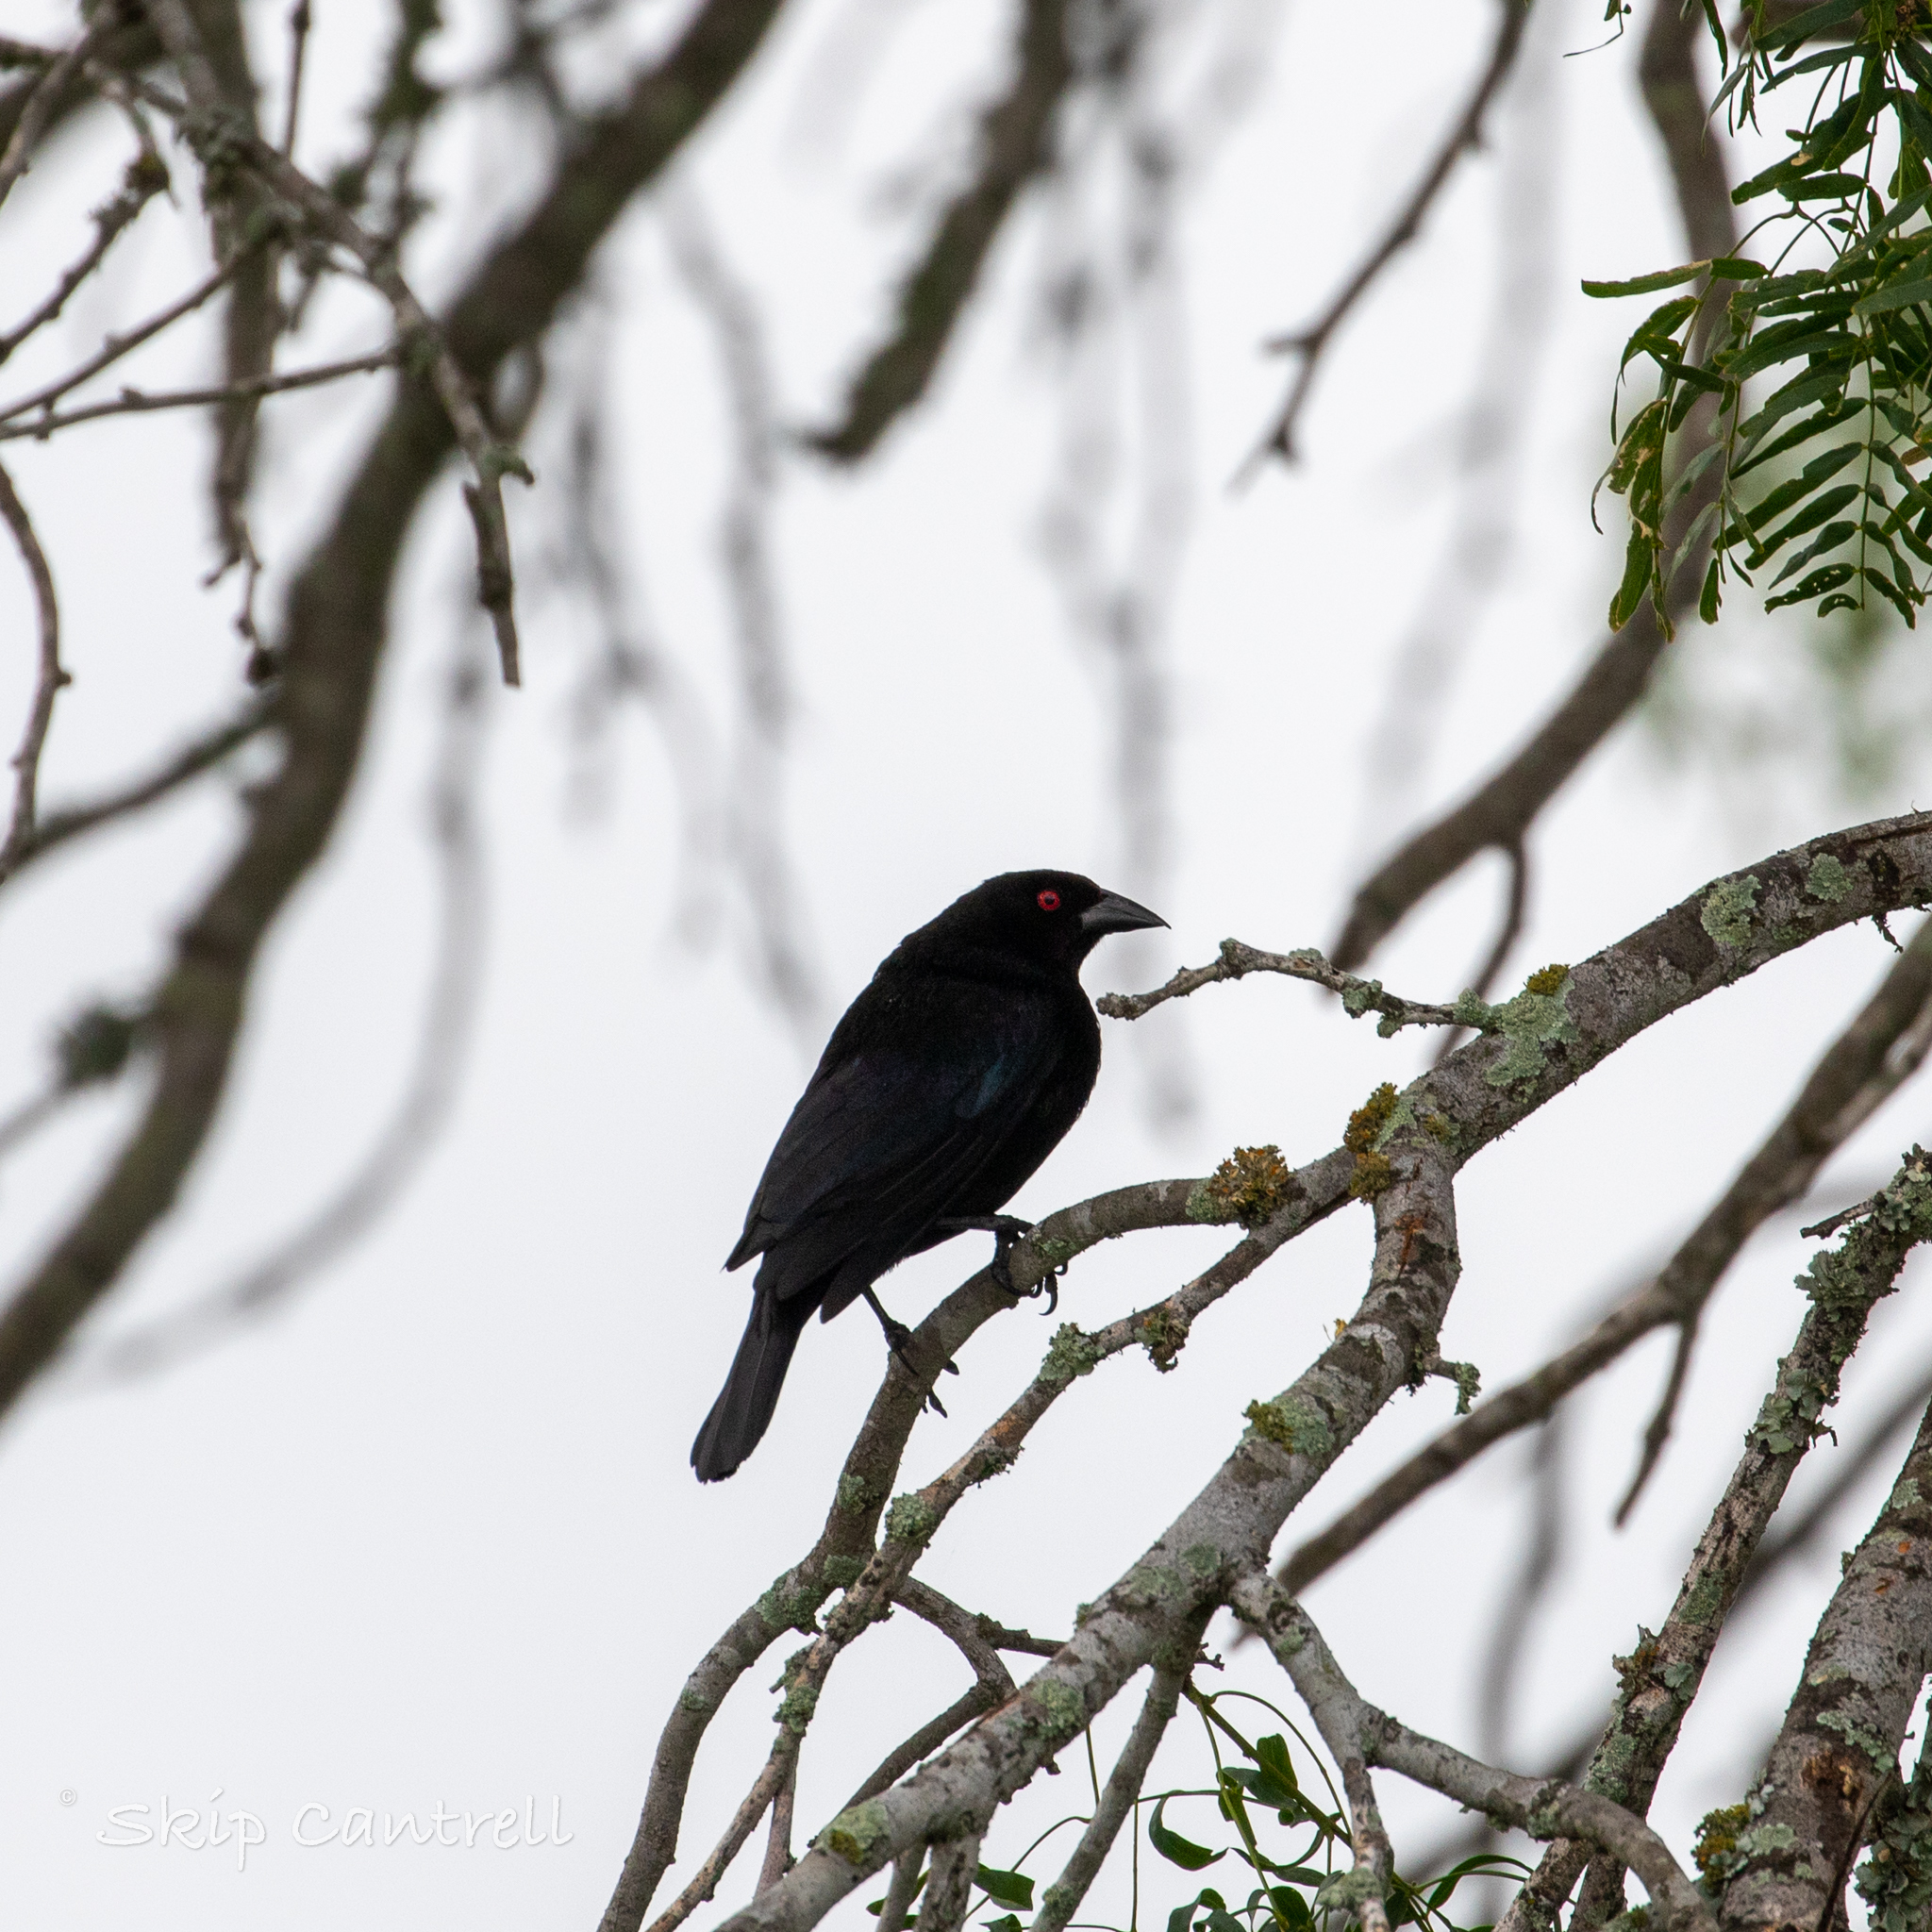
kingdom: Animalia
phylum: Chordata
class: Aves
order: Passeriformes
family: Icteridae
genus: Molothrus
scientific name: Molothrus aeneus
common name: Bronzed cowbird
